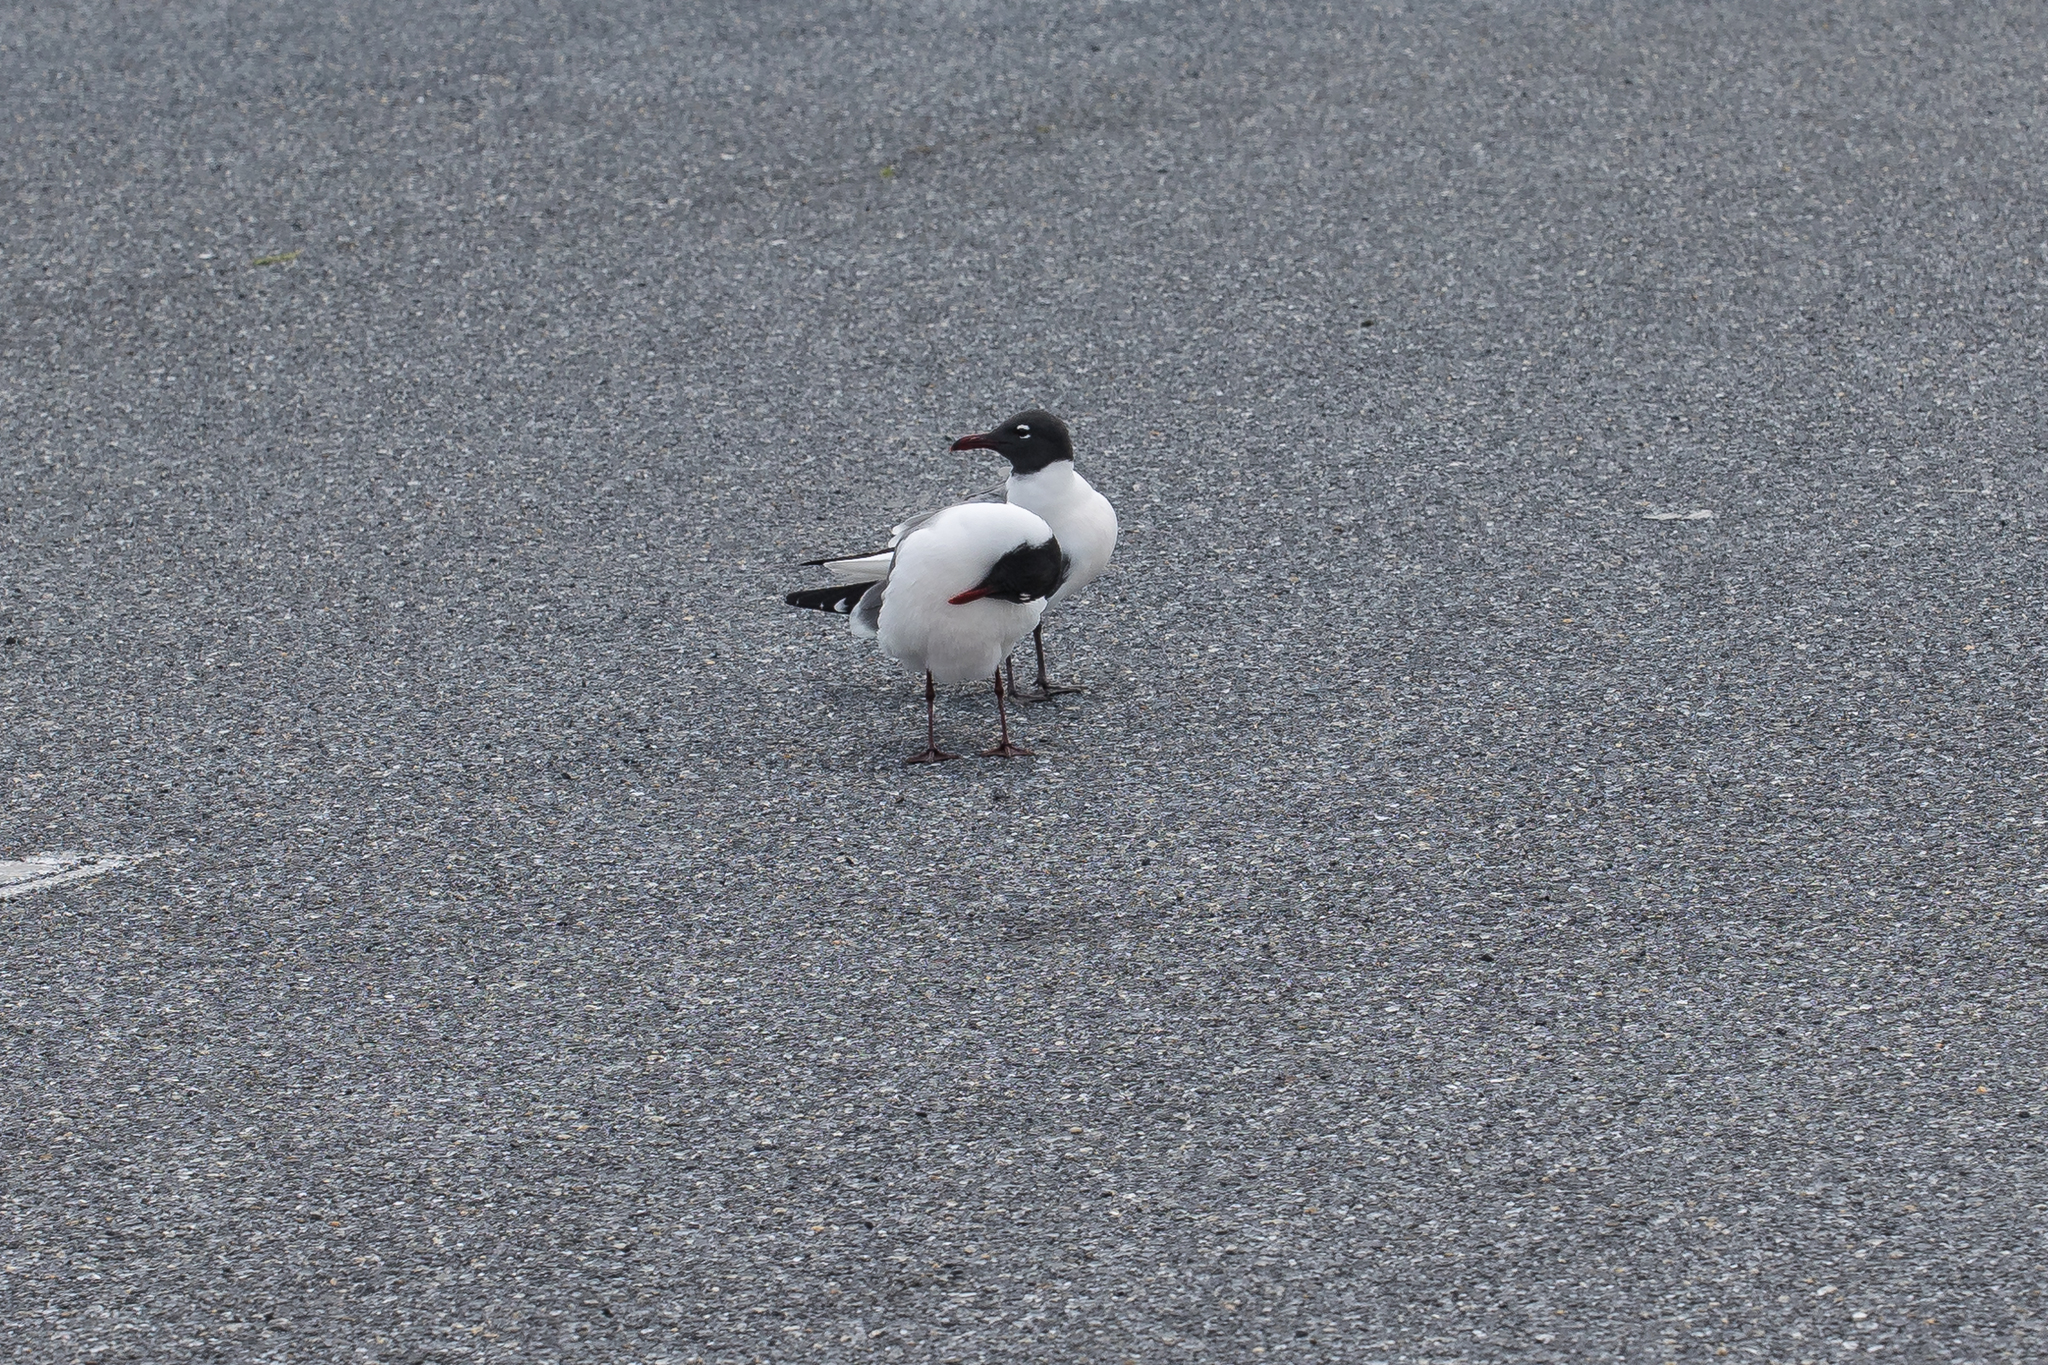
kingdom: Animalia
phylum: Chordata
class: Aves
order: Charadriiformes
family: Laridae
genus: Leucophaeus
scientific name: Leucophaeus atricilla
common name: Laughing gull
